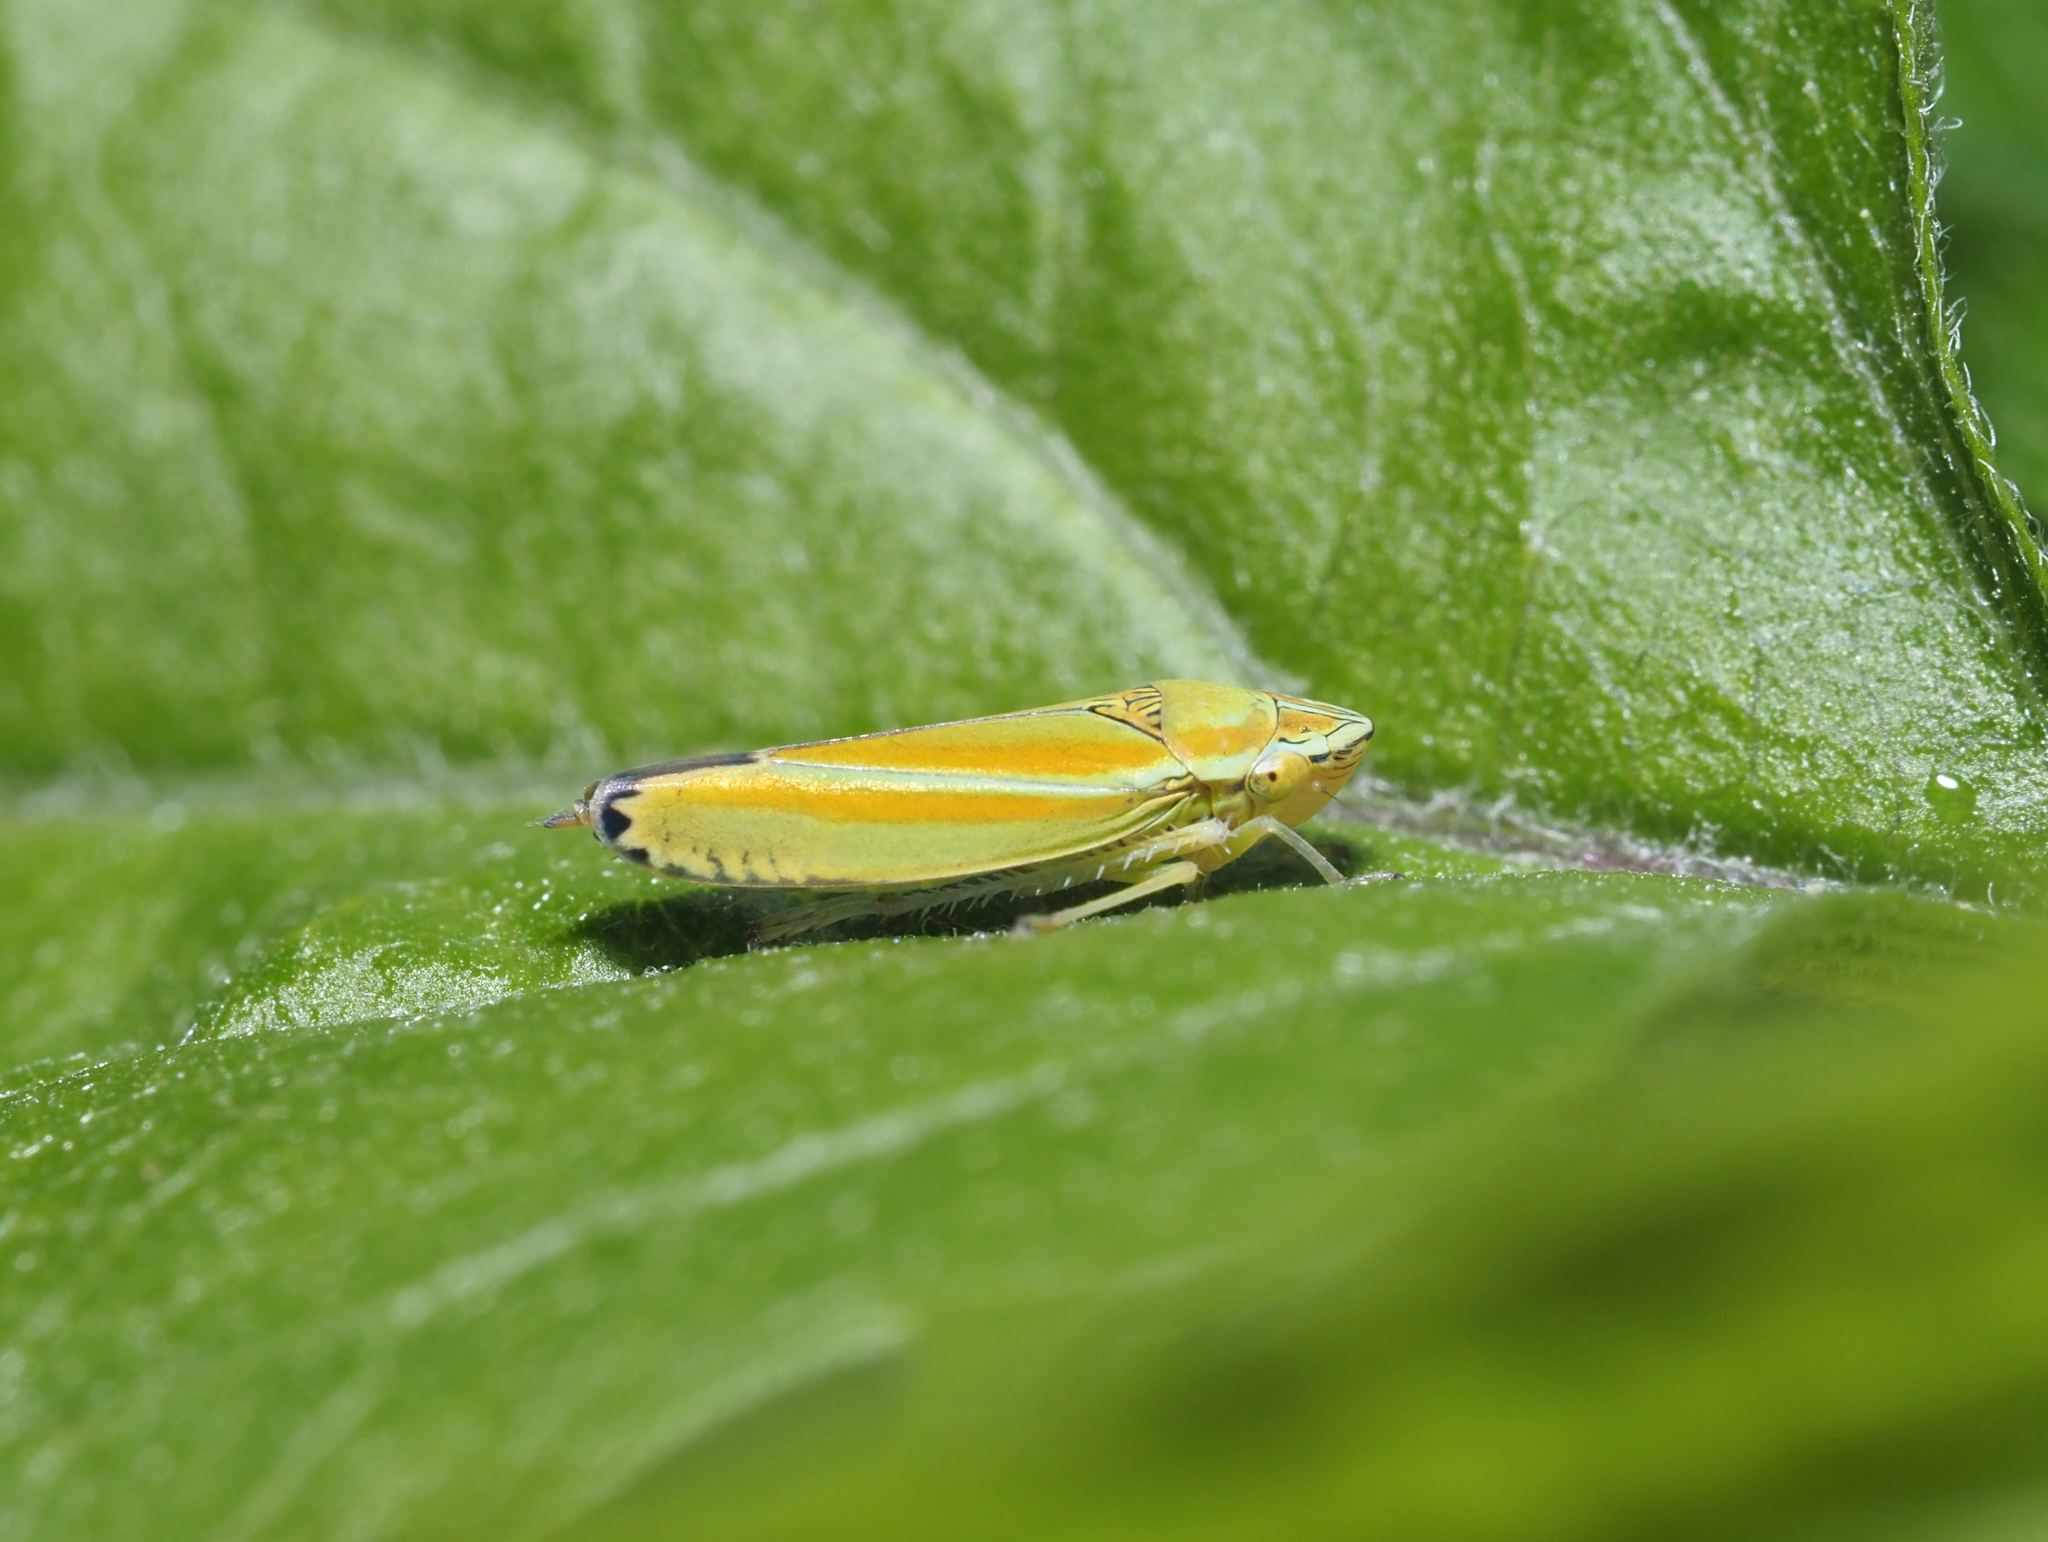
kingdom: Animalia
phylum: Arthropoda
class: Insecta
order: Hemiptera
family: Cicadellidae
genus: Graphocephala
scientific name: Graphocephala versuta
